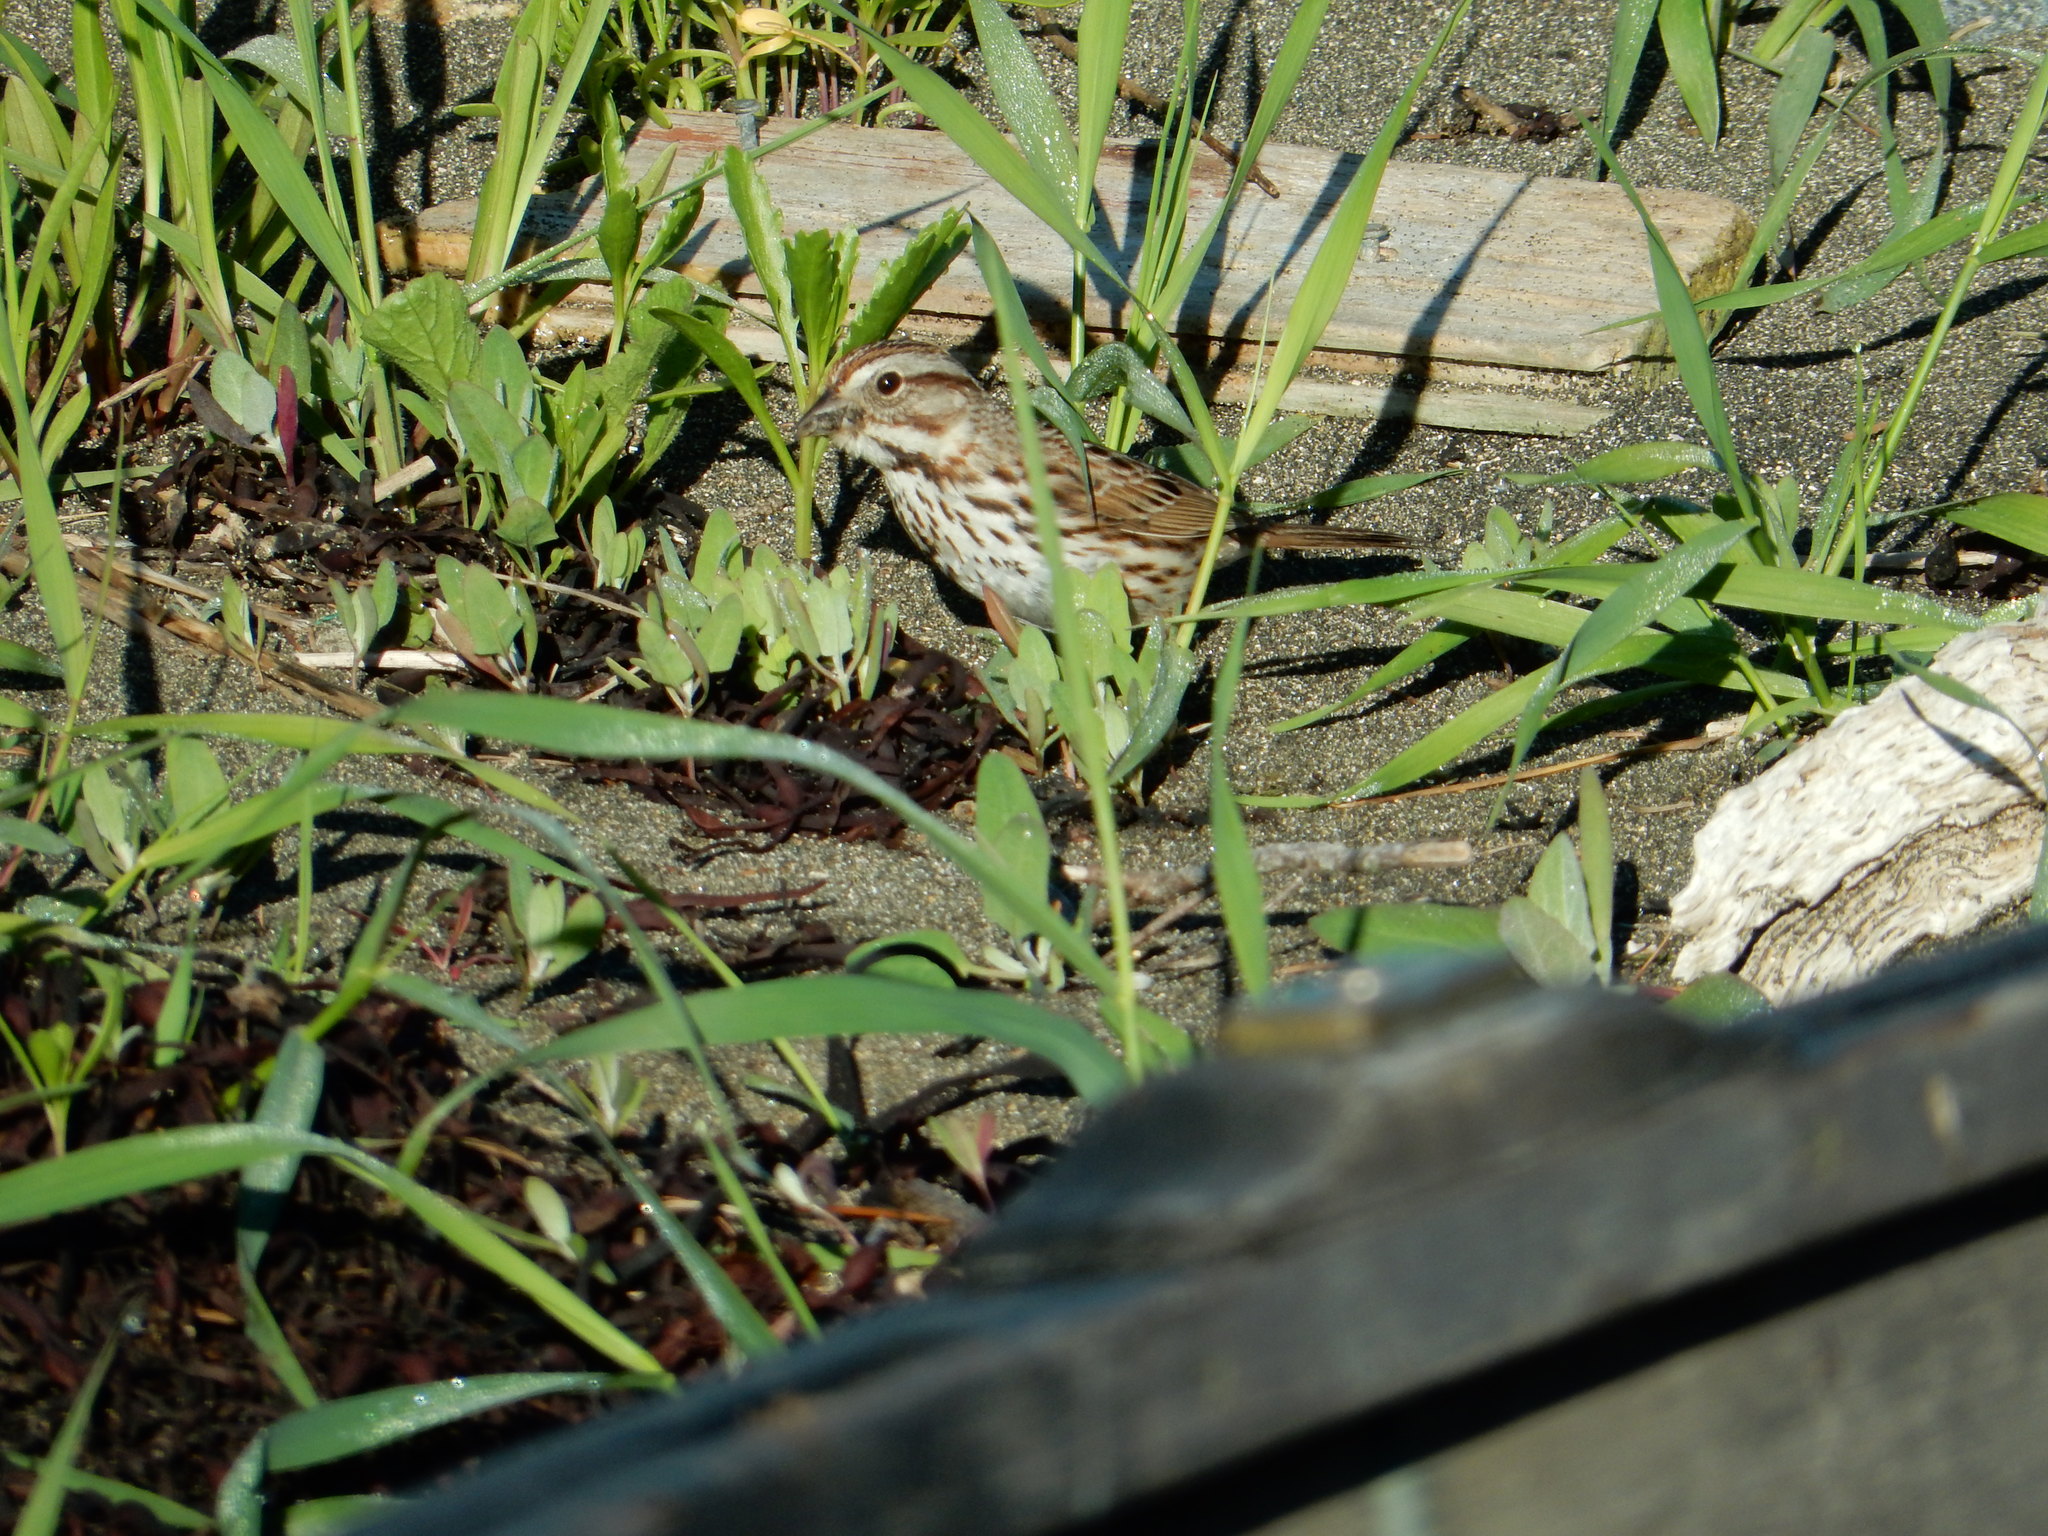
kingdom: Animalia
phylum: Chordata
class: Aves
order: Passeriformes
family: Passerellidae
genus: Melospiza
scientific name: Melospiza melodia
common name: Song sparrow
